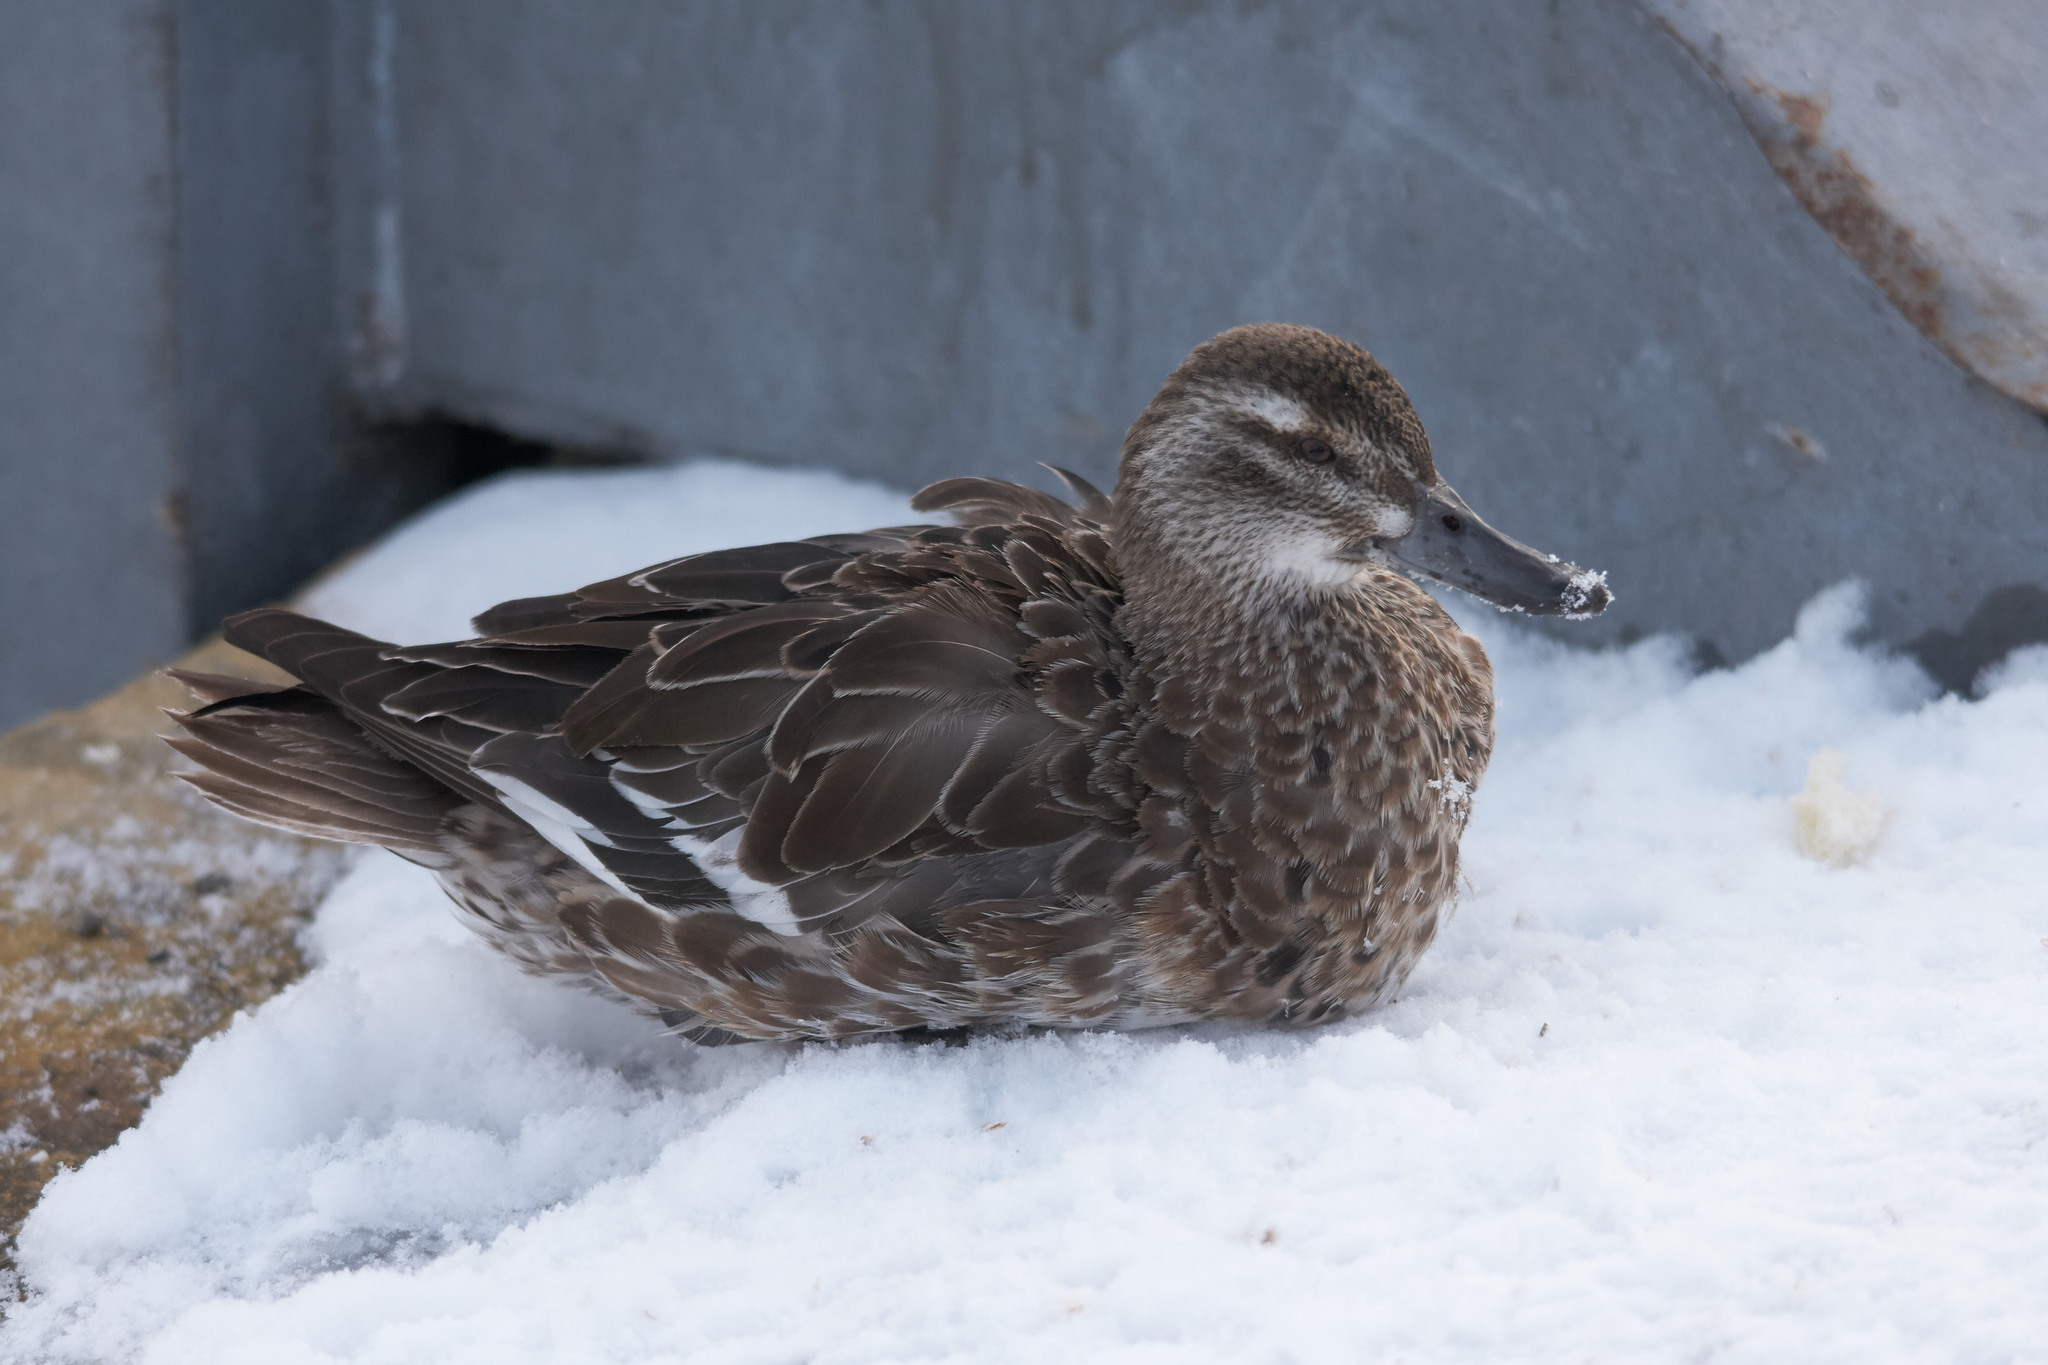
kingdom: Animalia
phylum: Chordata
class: Aves
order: Anseriformes
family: Anatidae
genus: Spatula
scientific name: Spatula querquedula
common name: Garganey
